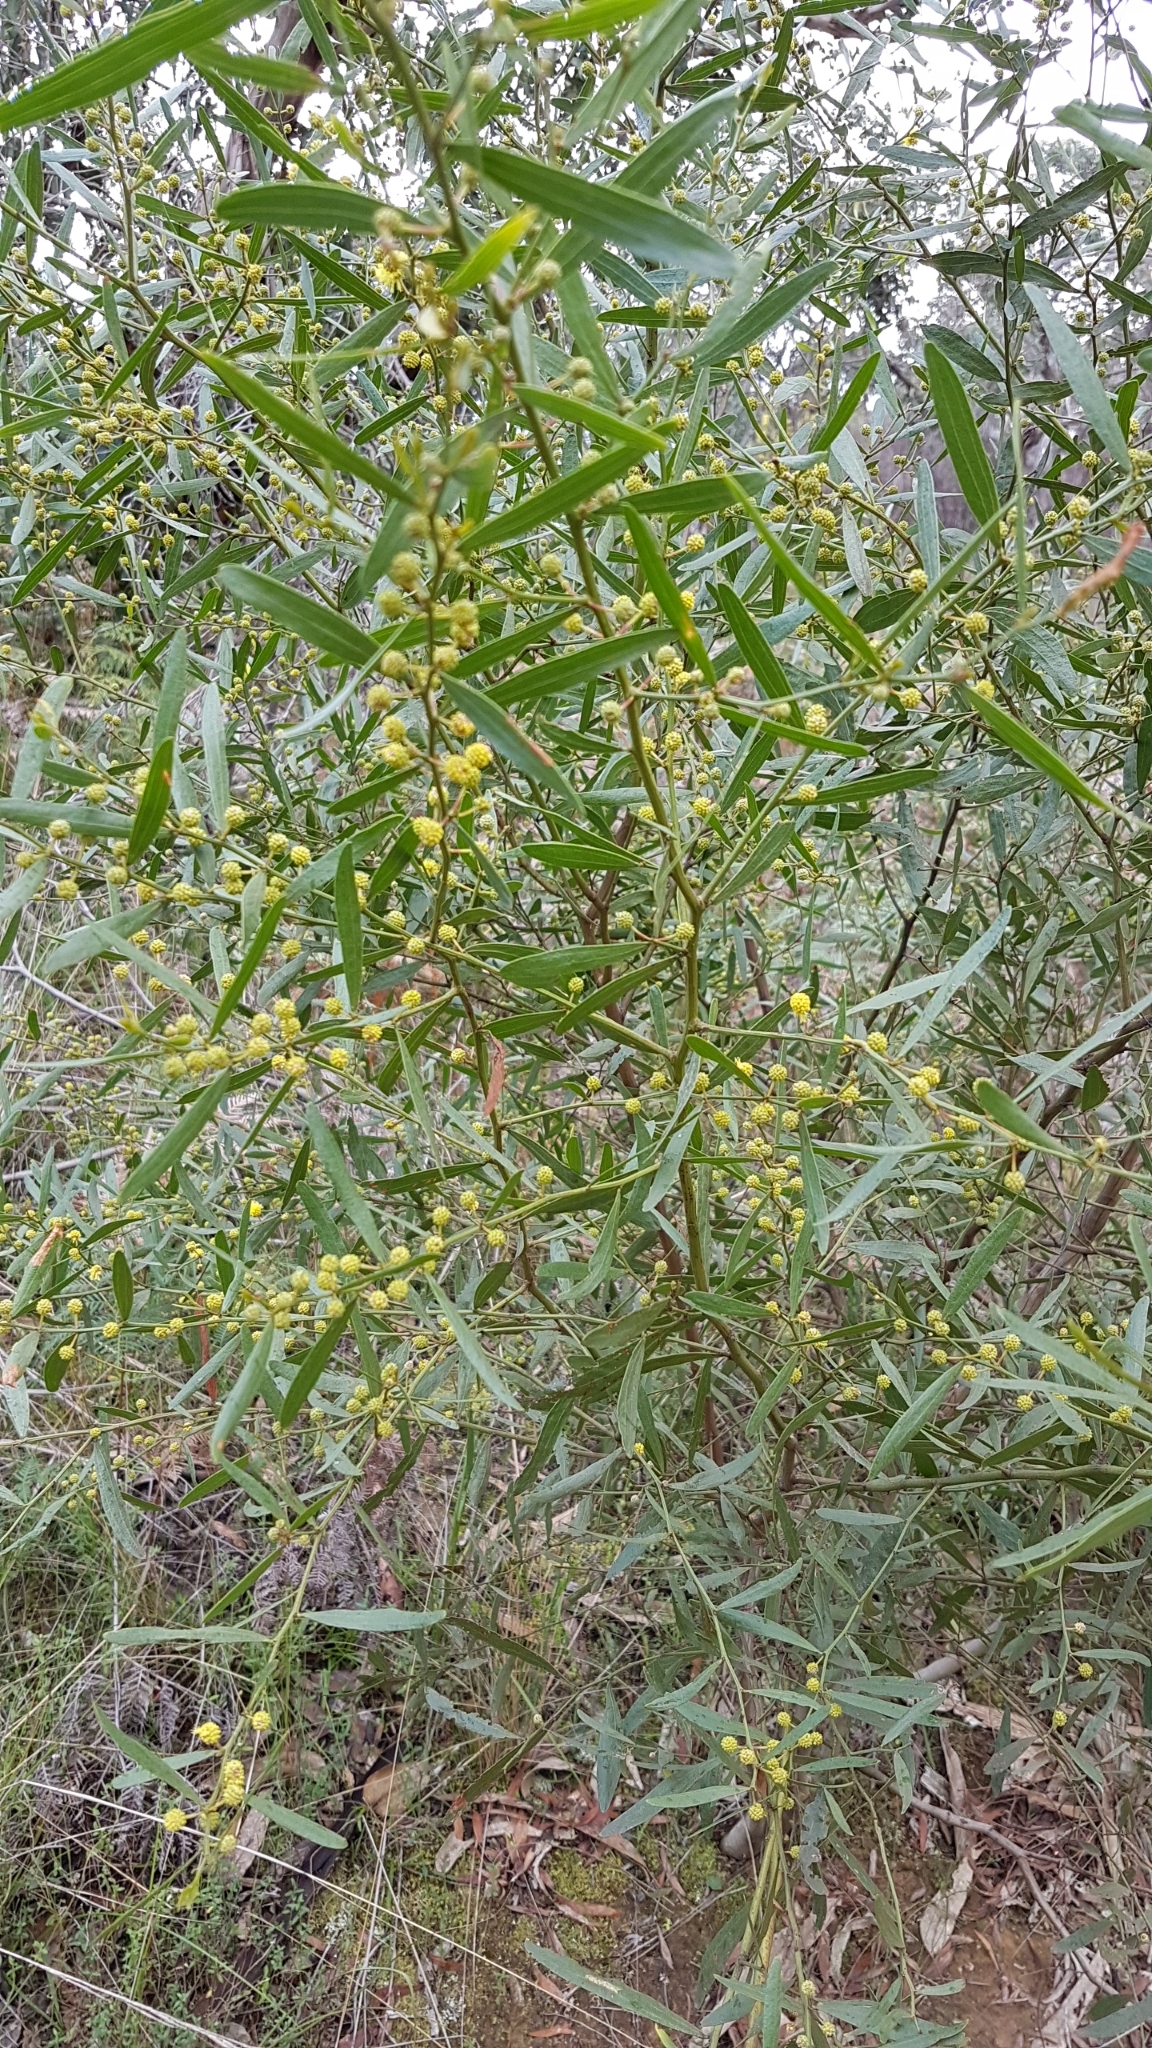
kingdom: Plantae
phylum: Tracheophyta
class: Magnoliopsida
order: Fabales
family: Fabaceae
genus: Acacia
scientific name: Acacia verniciflua
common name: Varnish wattle
